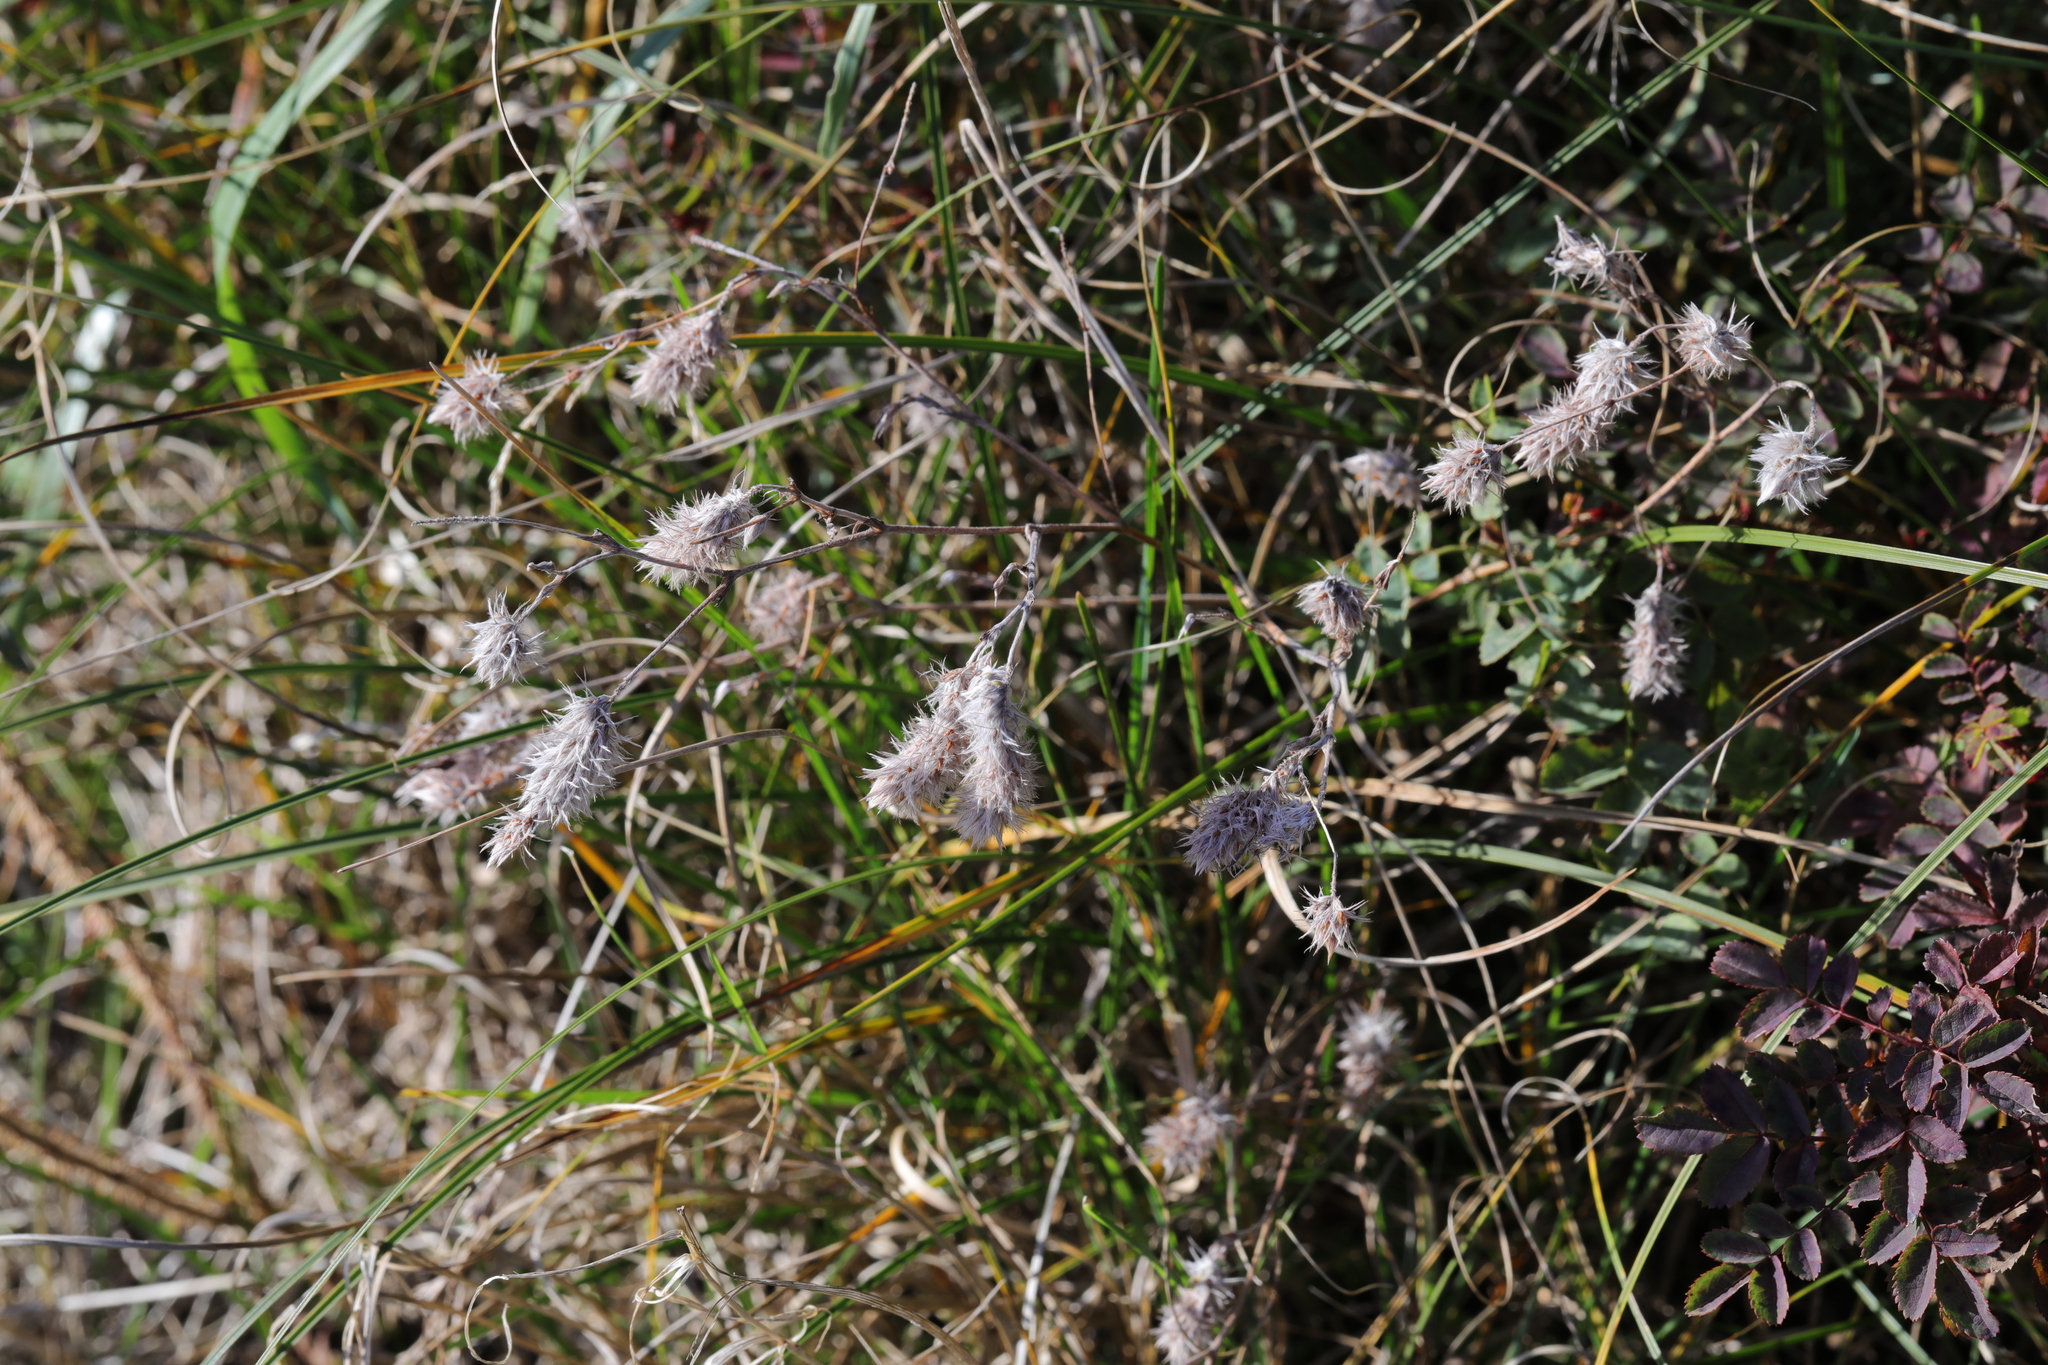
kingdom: Plantae
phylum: Tracheophyta
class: Magnoliopsida
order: Fabales
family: Fabaceae
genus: Trifolium
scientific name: Trifolium arvense
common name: Hare's-foot clover
